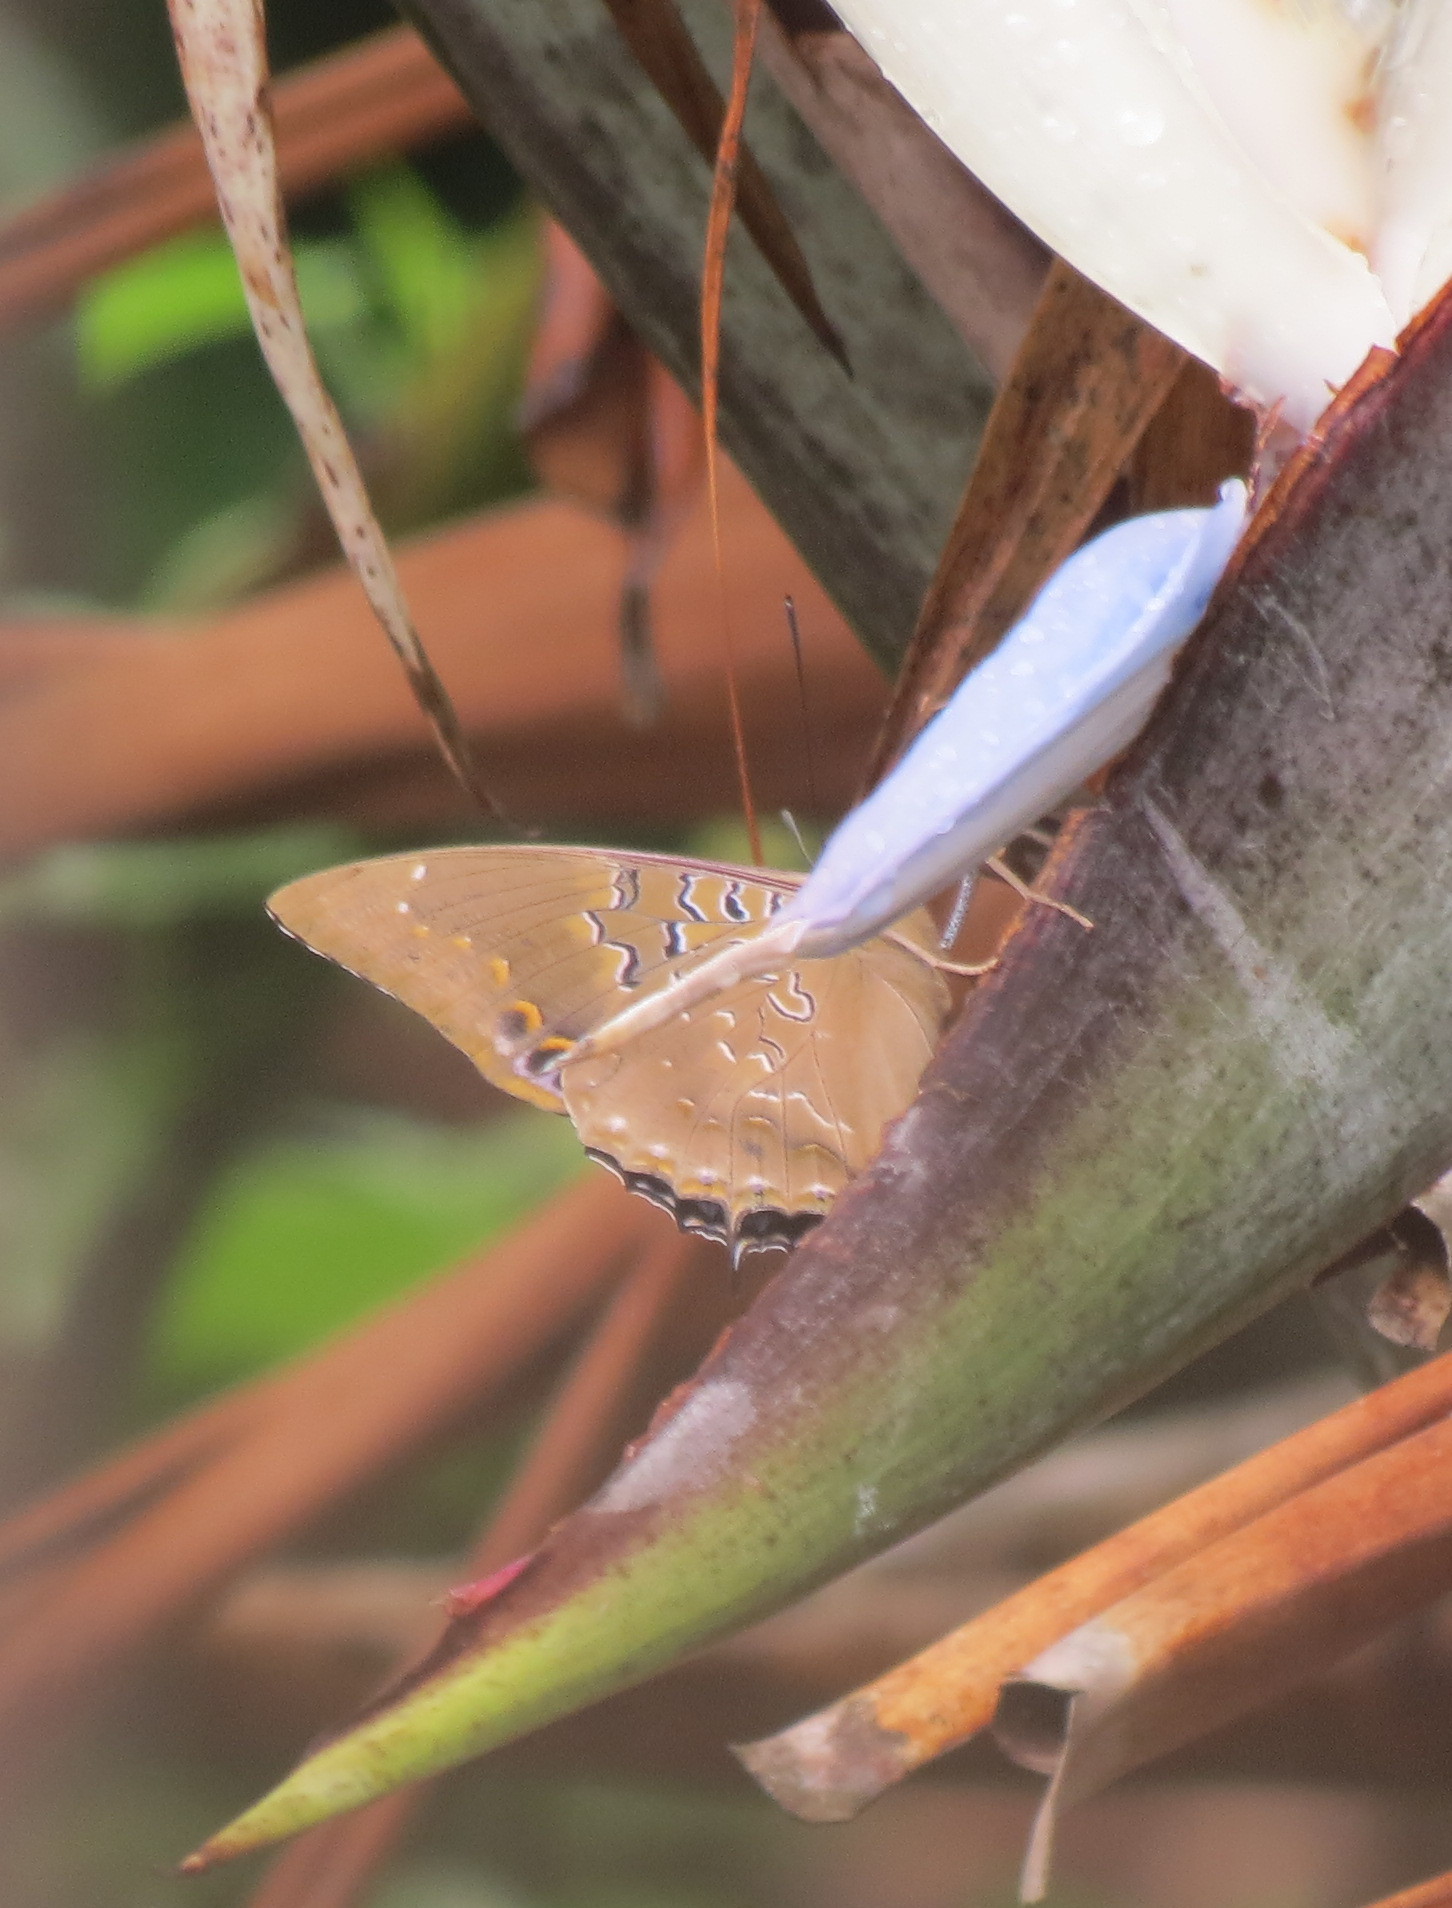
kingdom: Animalia
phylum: Arthropoda
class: Insecta
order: Lepidoptera
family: Nymphalidae
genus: Charaxes
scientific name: Charaxes cithaeron
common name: Blue-spotted charaxes
